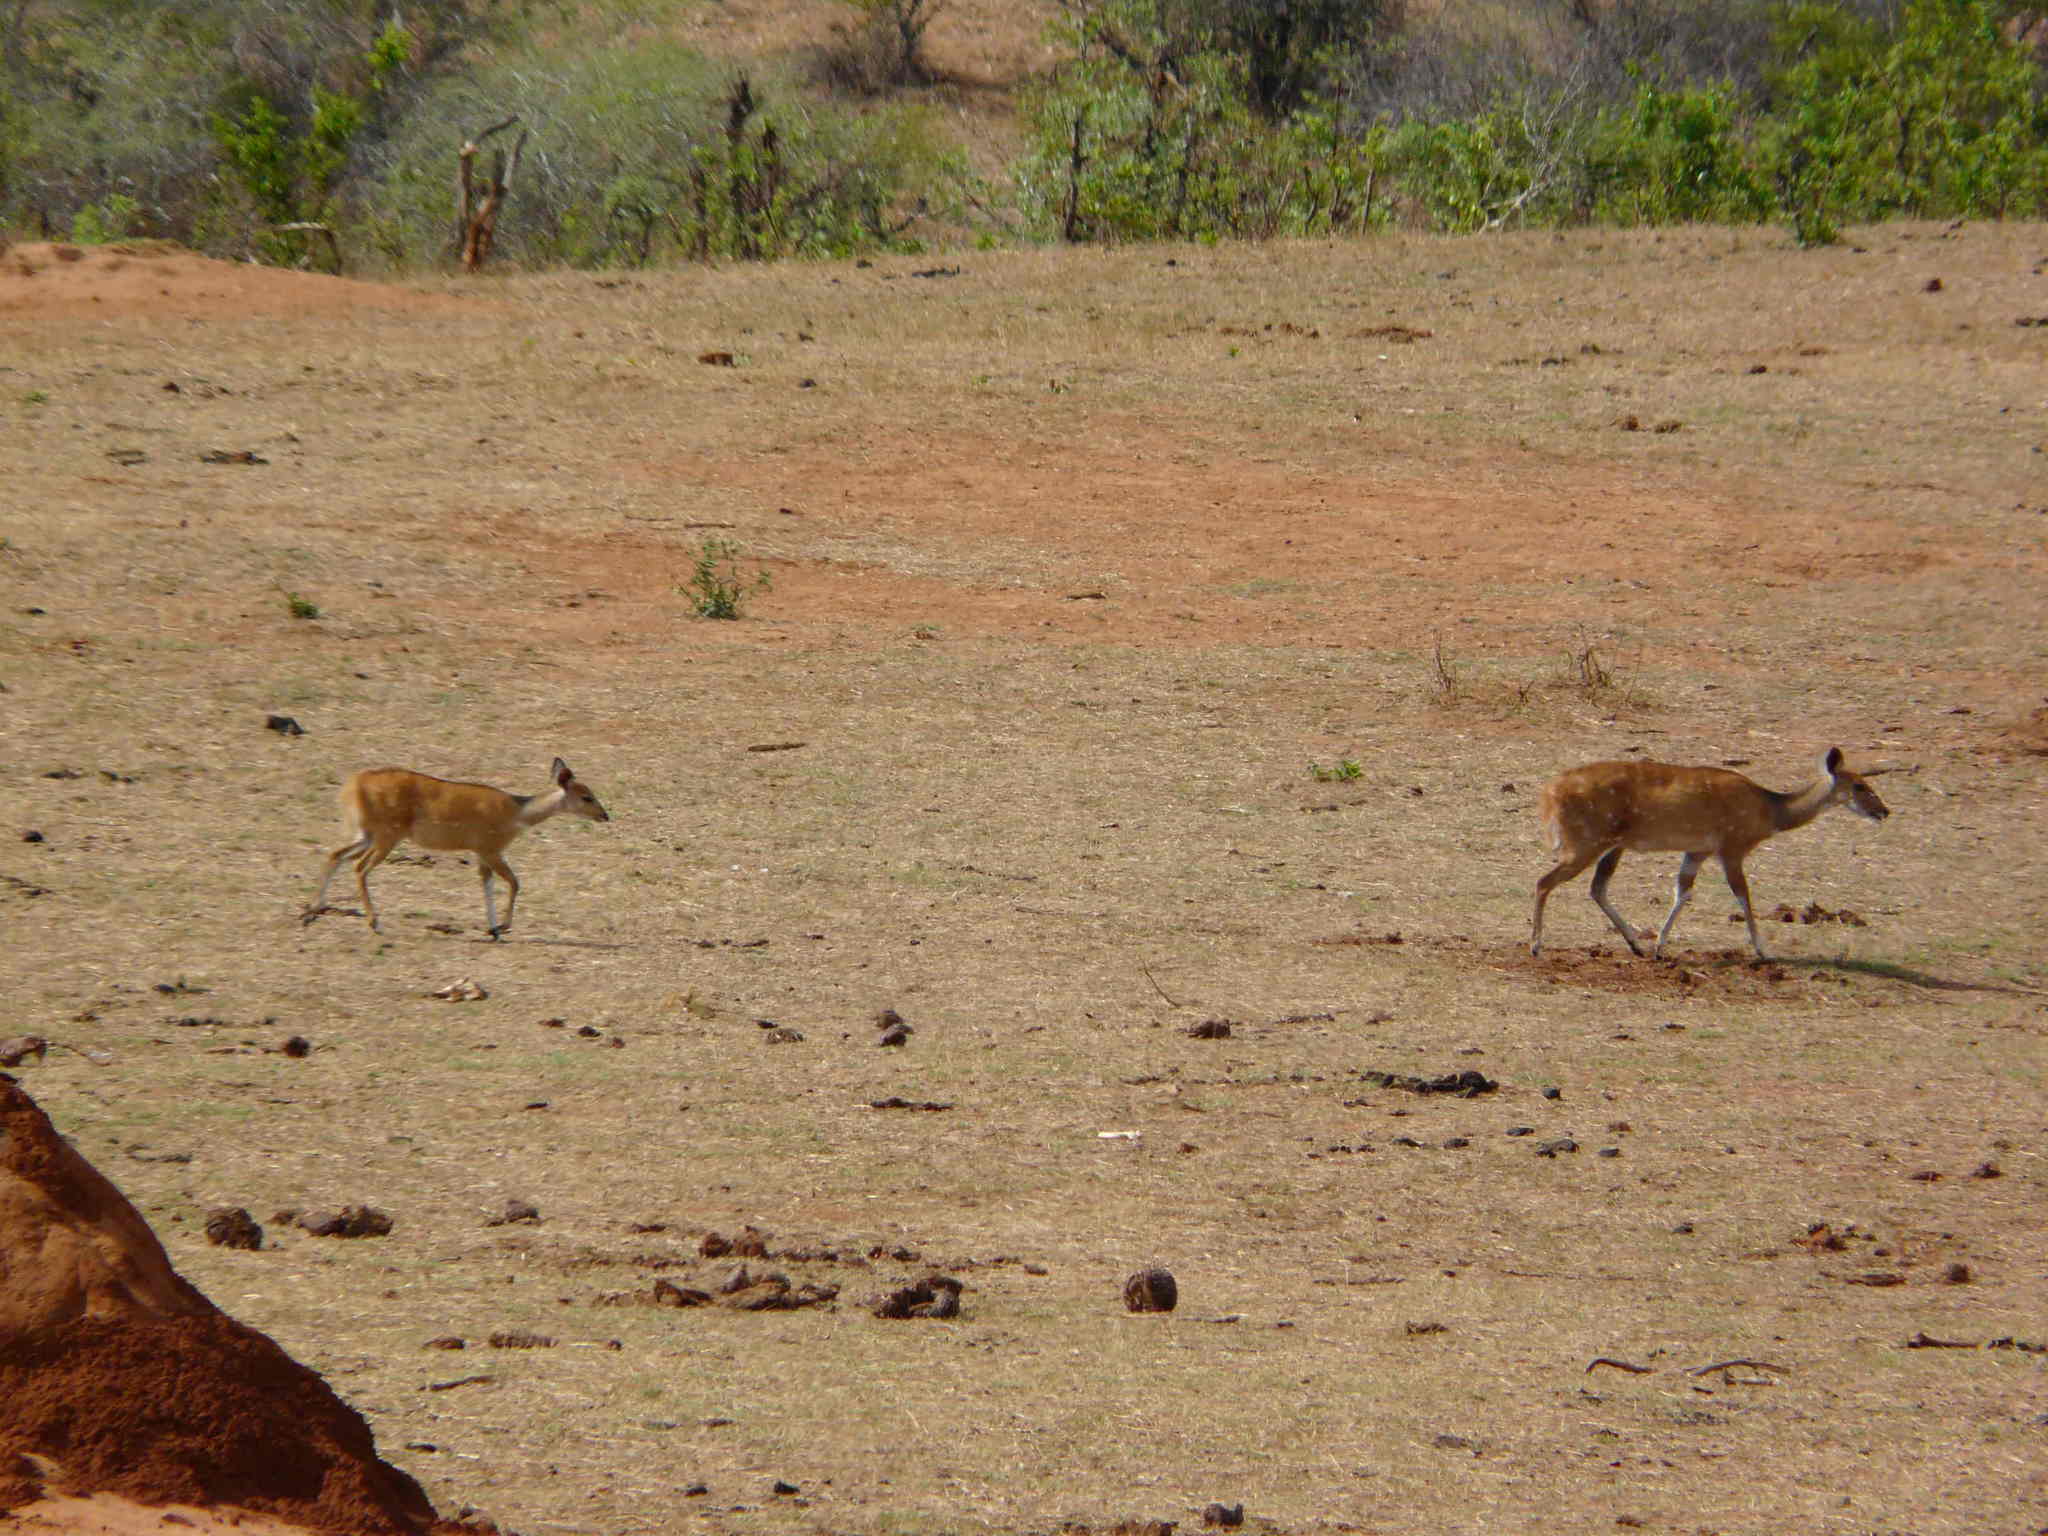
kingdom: Animalia
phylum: Chordata
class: Mammalia
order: Artiodactyla
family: Bovidae
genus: Tragelaphus
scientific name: Tragelaphus scriptus
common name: Bushbuck
